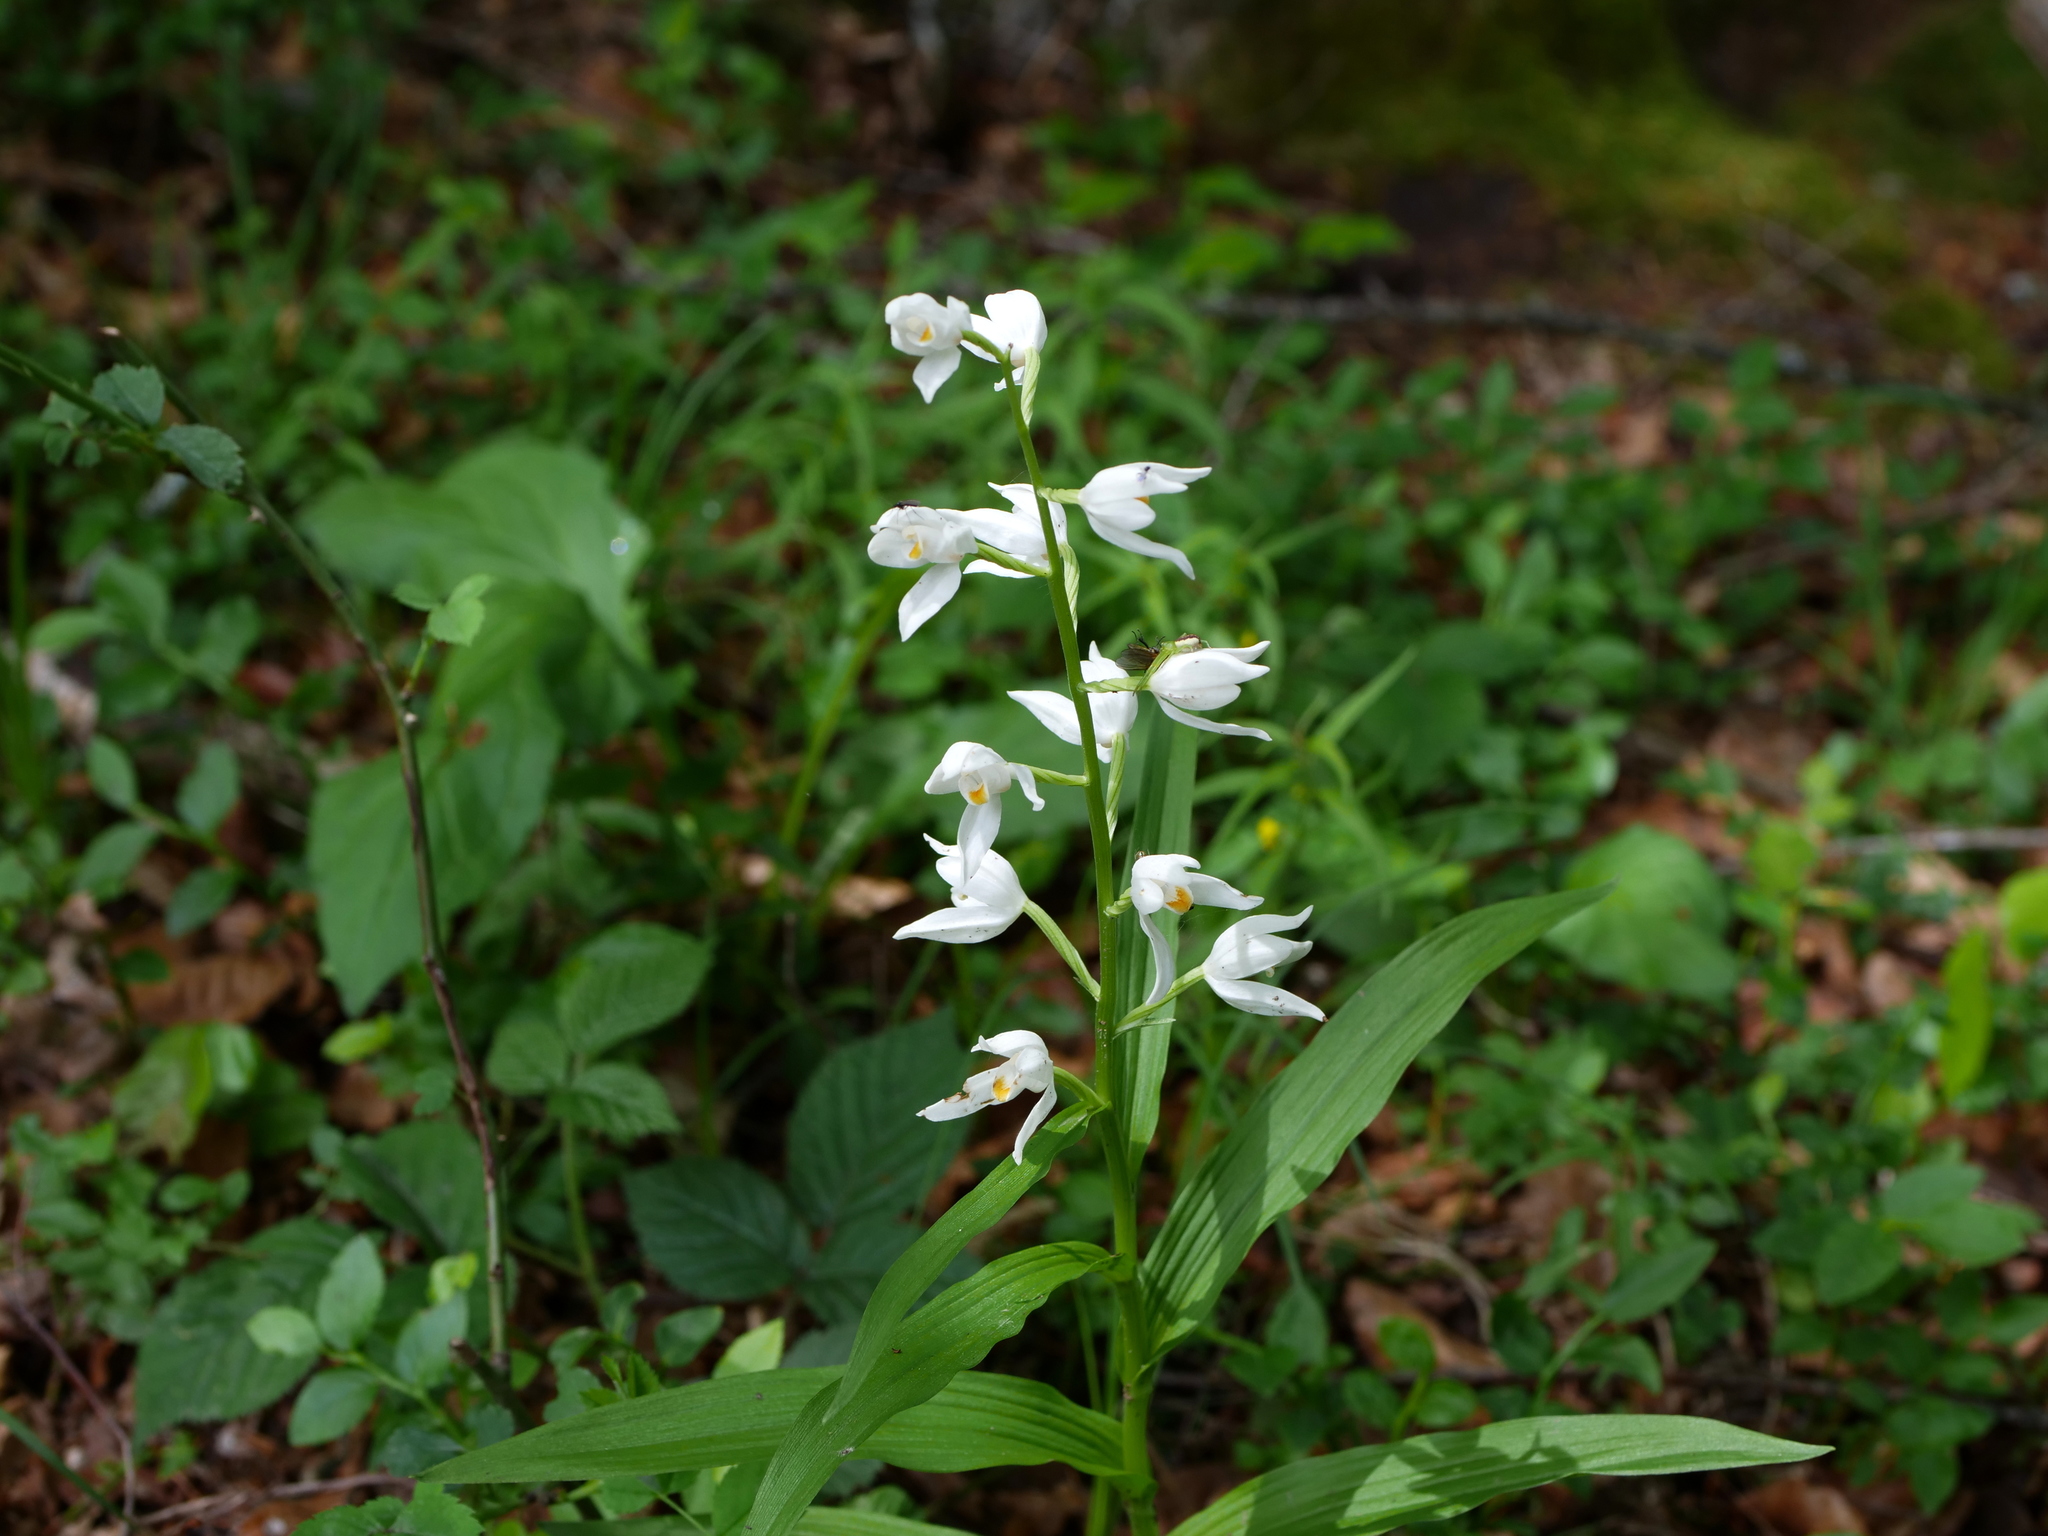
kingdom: Plantae
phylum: Tracheophyta
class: Liliopsida
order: Asparagales
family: Orchidaceae
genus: Cephalanthera
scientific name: Cephalanthera longifolia
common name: Narrow-leaved helleborine
